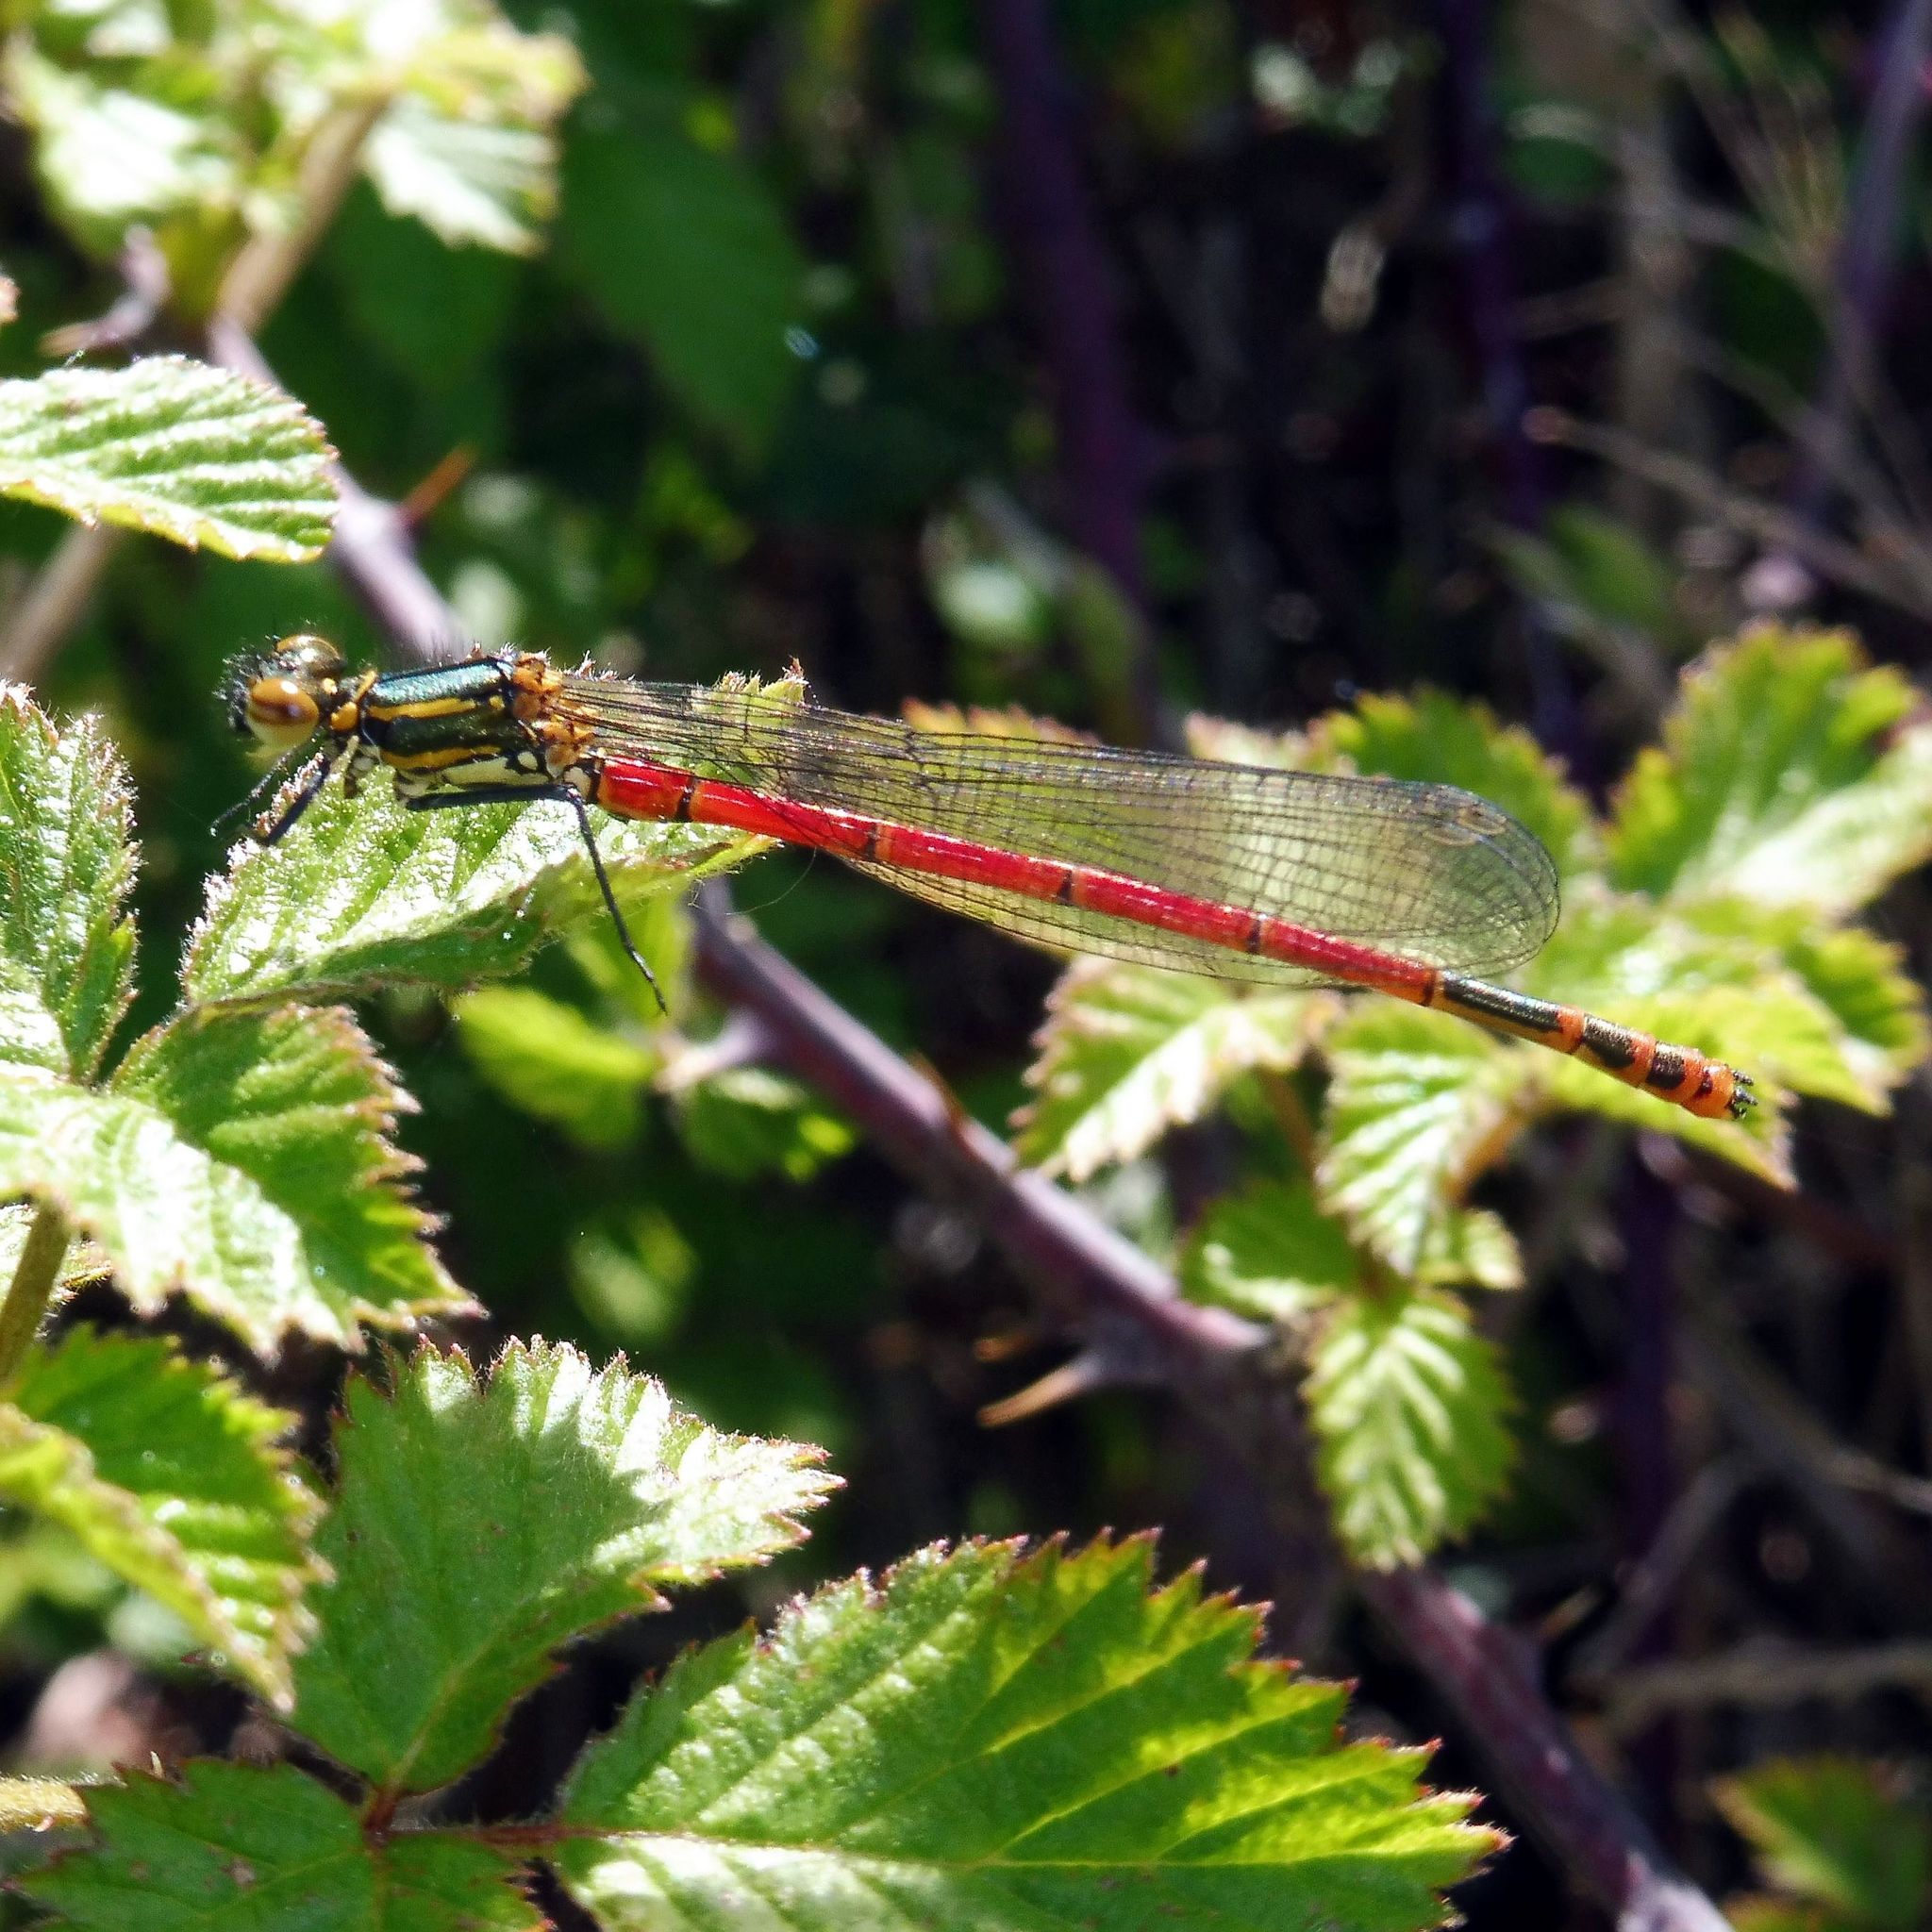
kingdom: Animalia
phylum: Arthropoda
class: Insecta
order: Odonata
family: Coenagrionidae
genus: Pyrrhosoma
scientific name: Pyrrhosoma nymphula
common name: Large red damsel
